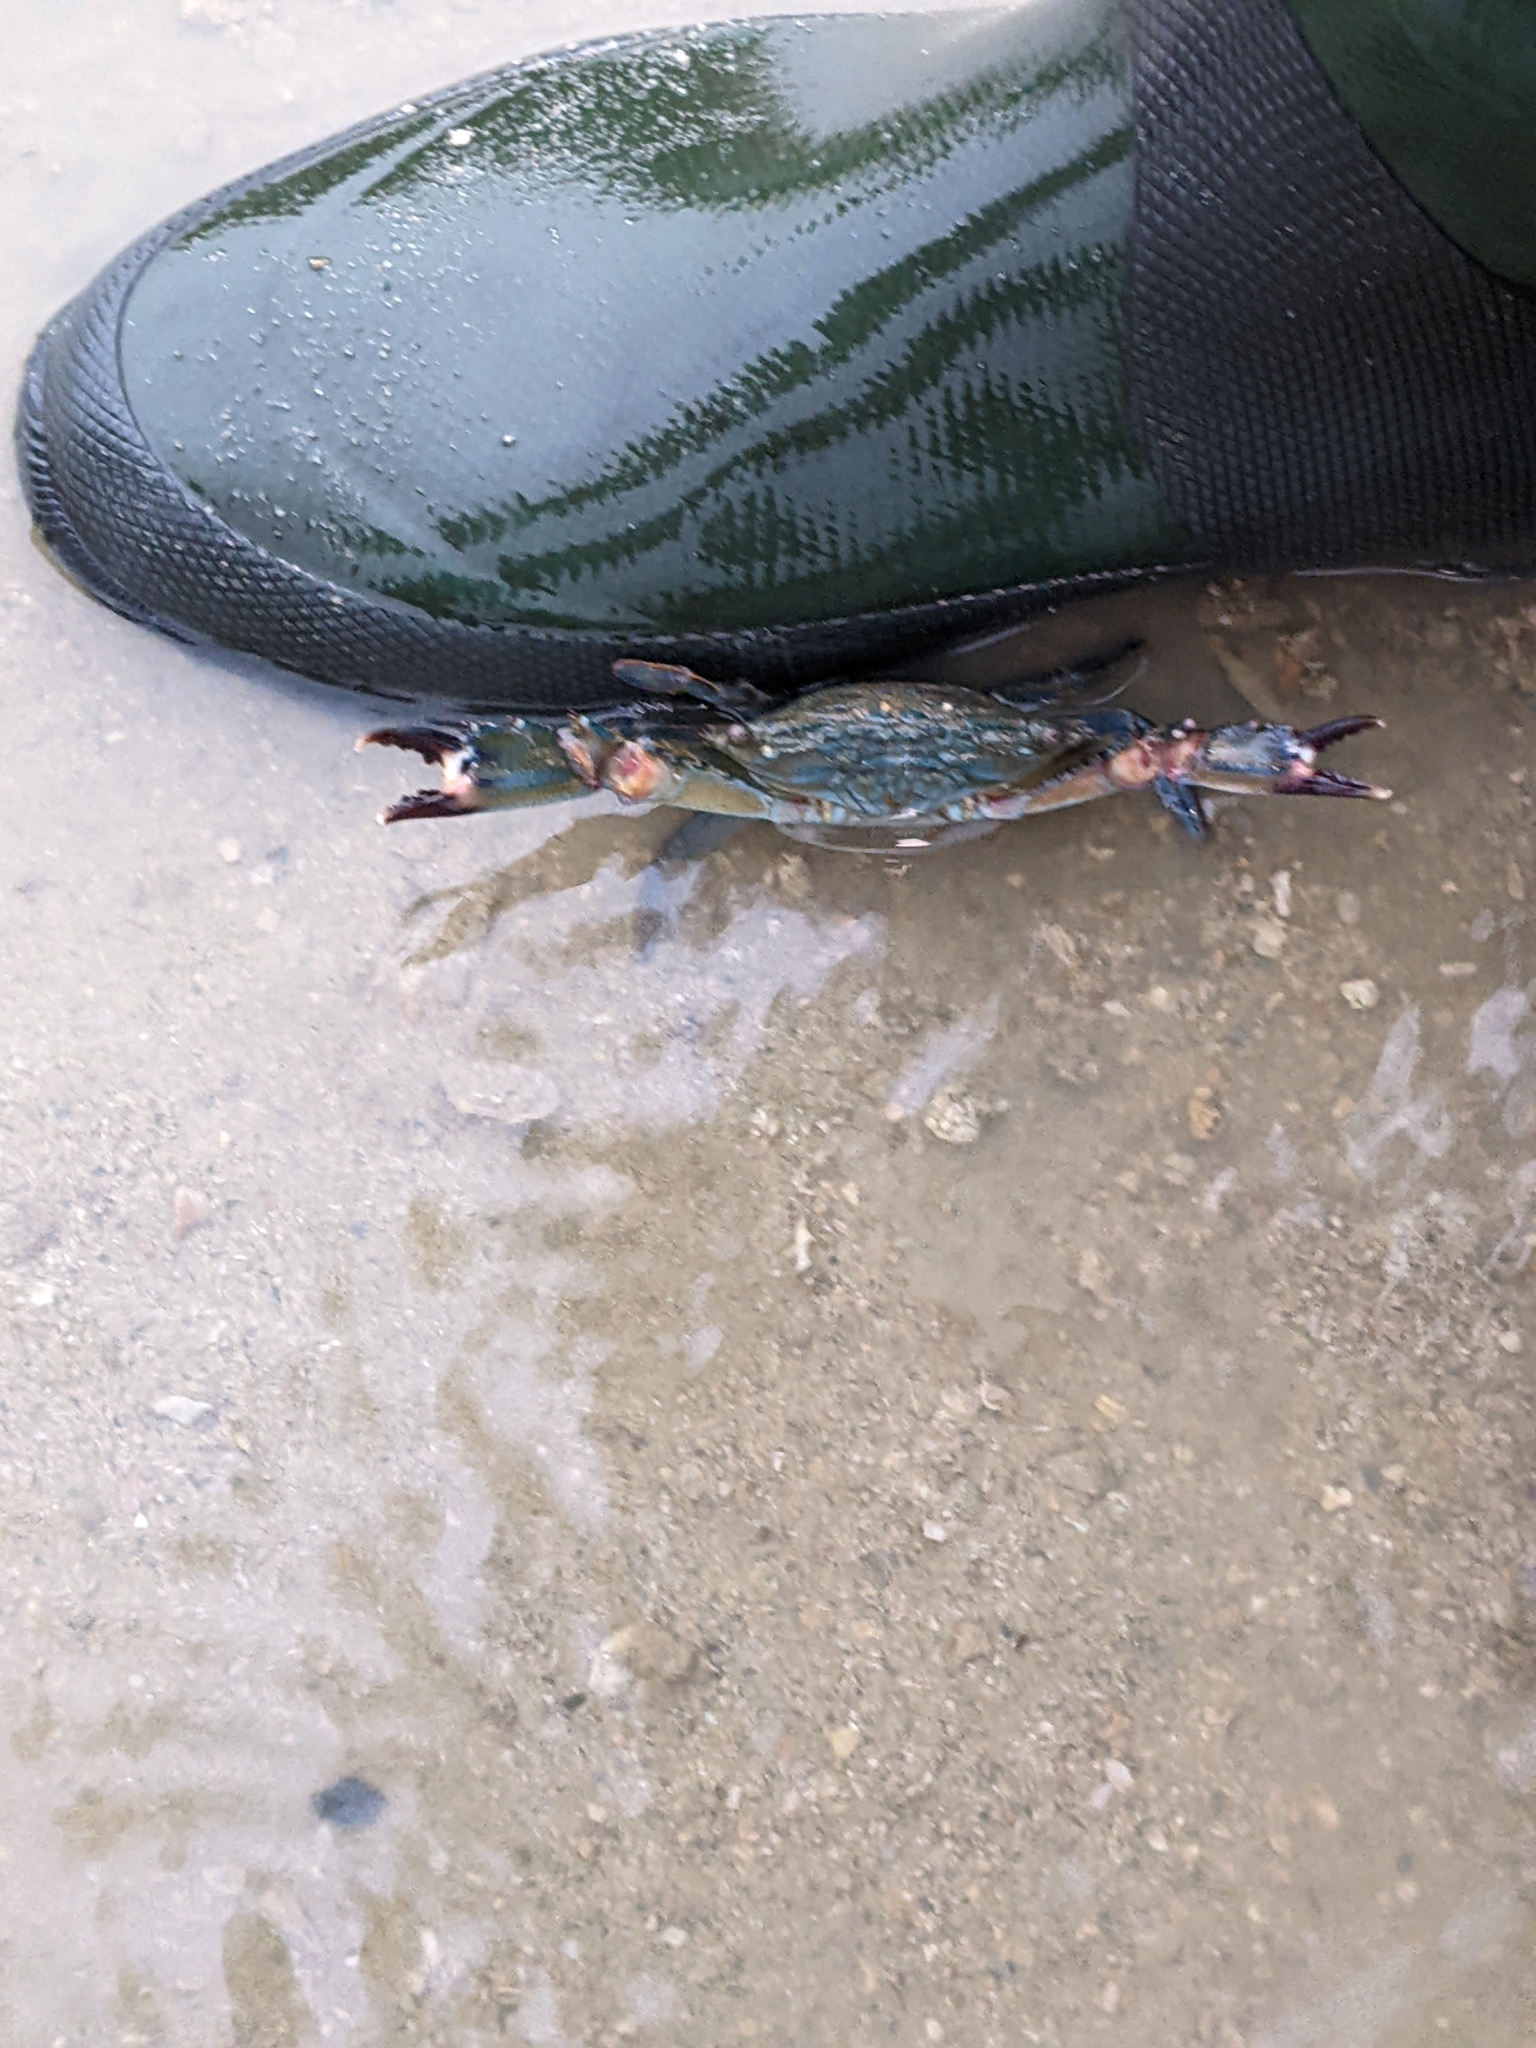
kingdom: Animalia
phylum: Arthropoda
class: Malacostraca
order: Decapoda
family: Portunidae
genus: Thalamita
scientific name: Thalamita danae
